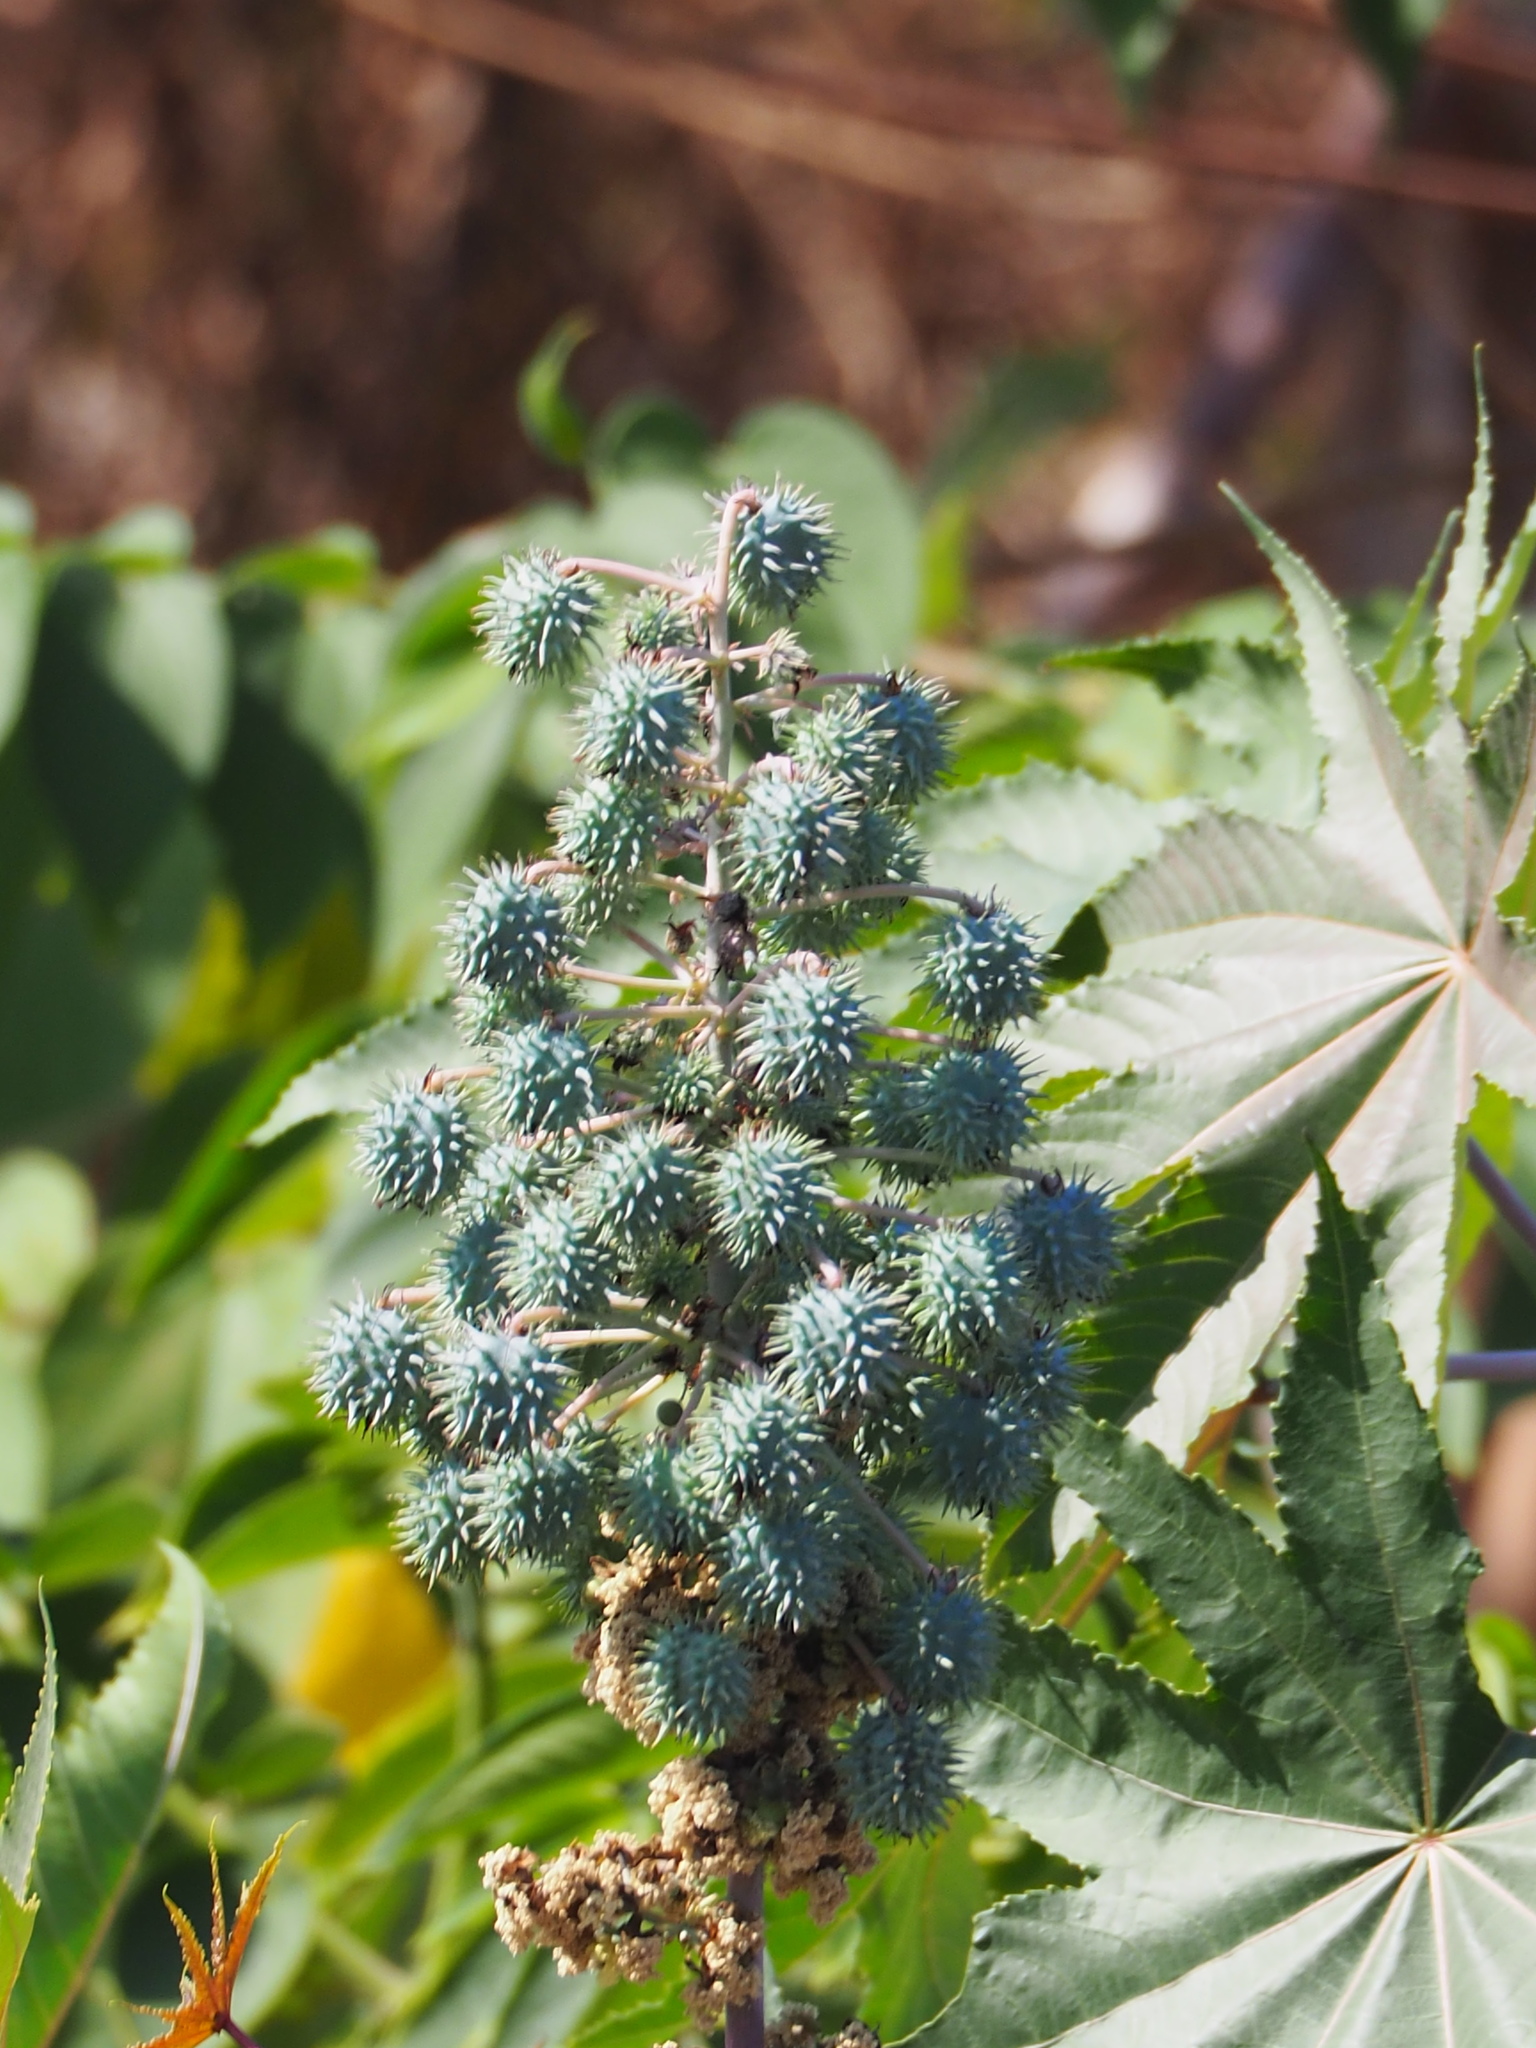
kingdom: Plantae
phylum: Tracheophyta
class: Magnoliopsida
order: Malpighiales
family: Euphorbiaceae
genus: Ricinus
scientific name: Ricinus communis
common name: Castor-oil-plant
